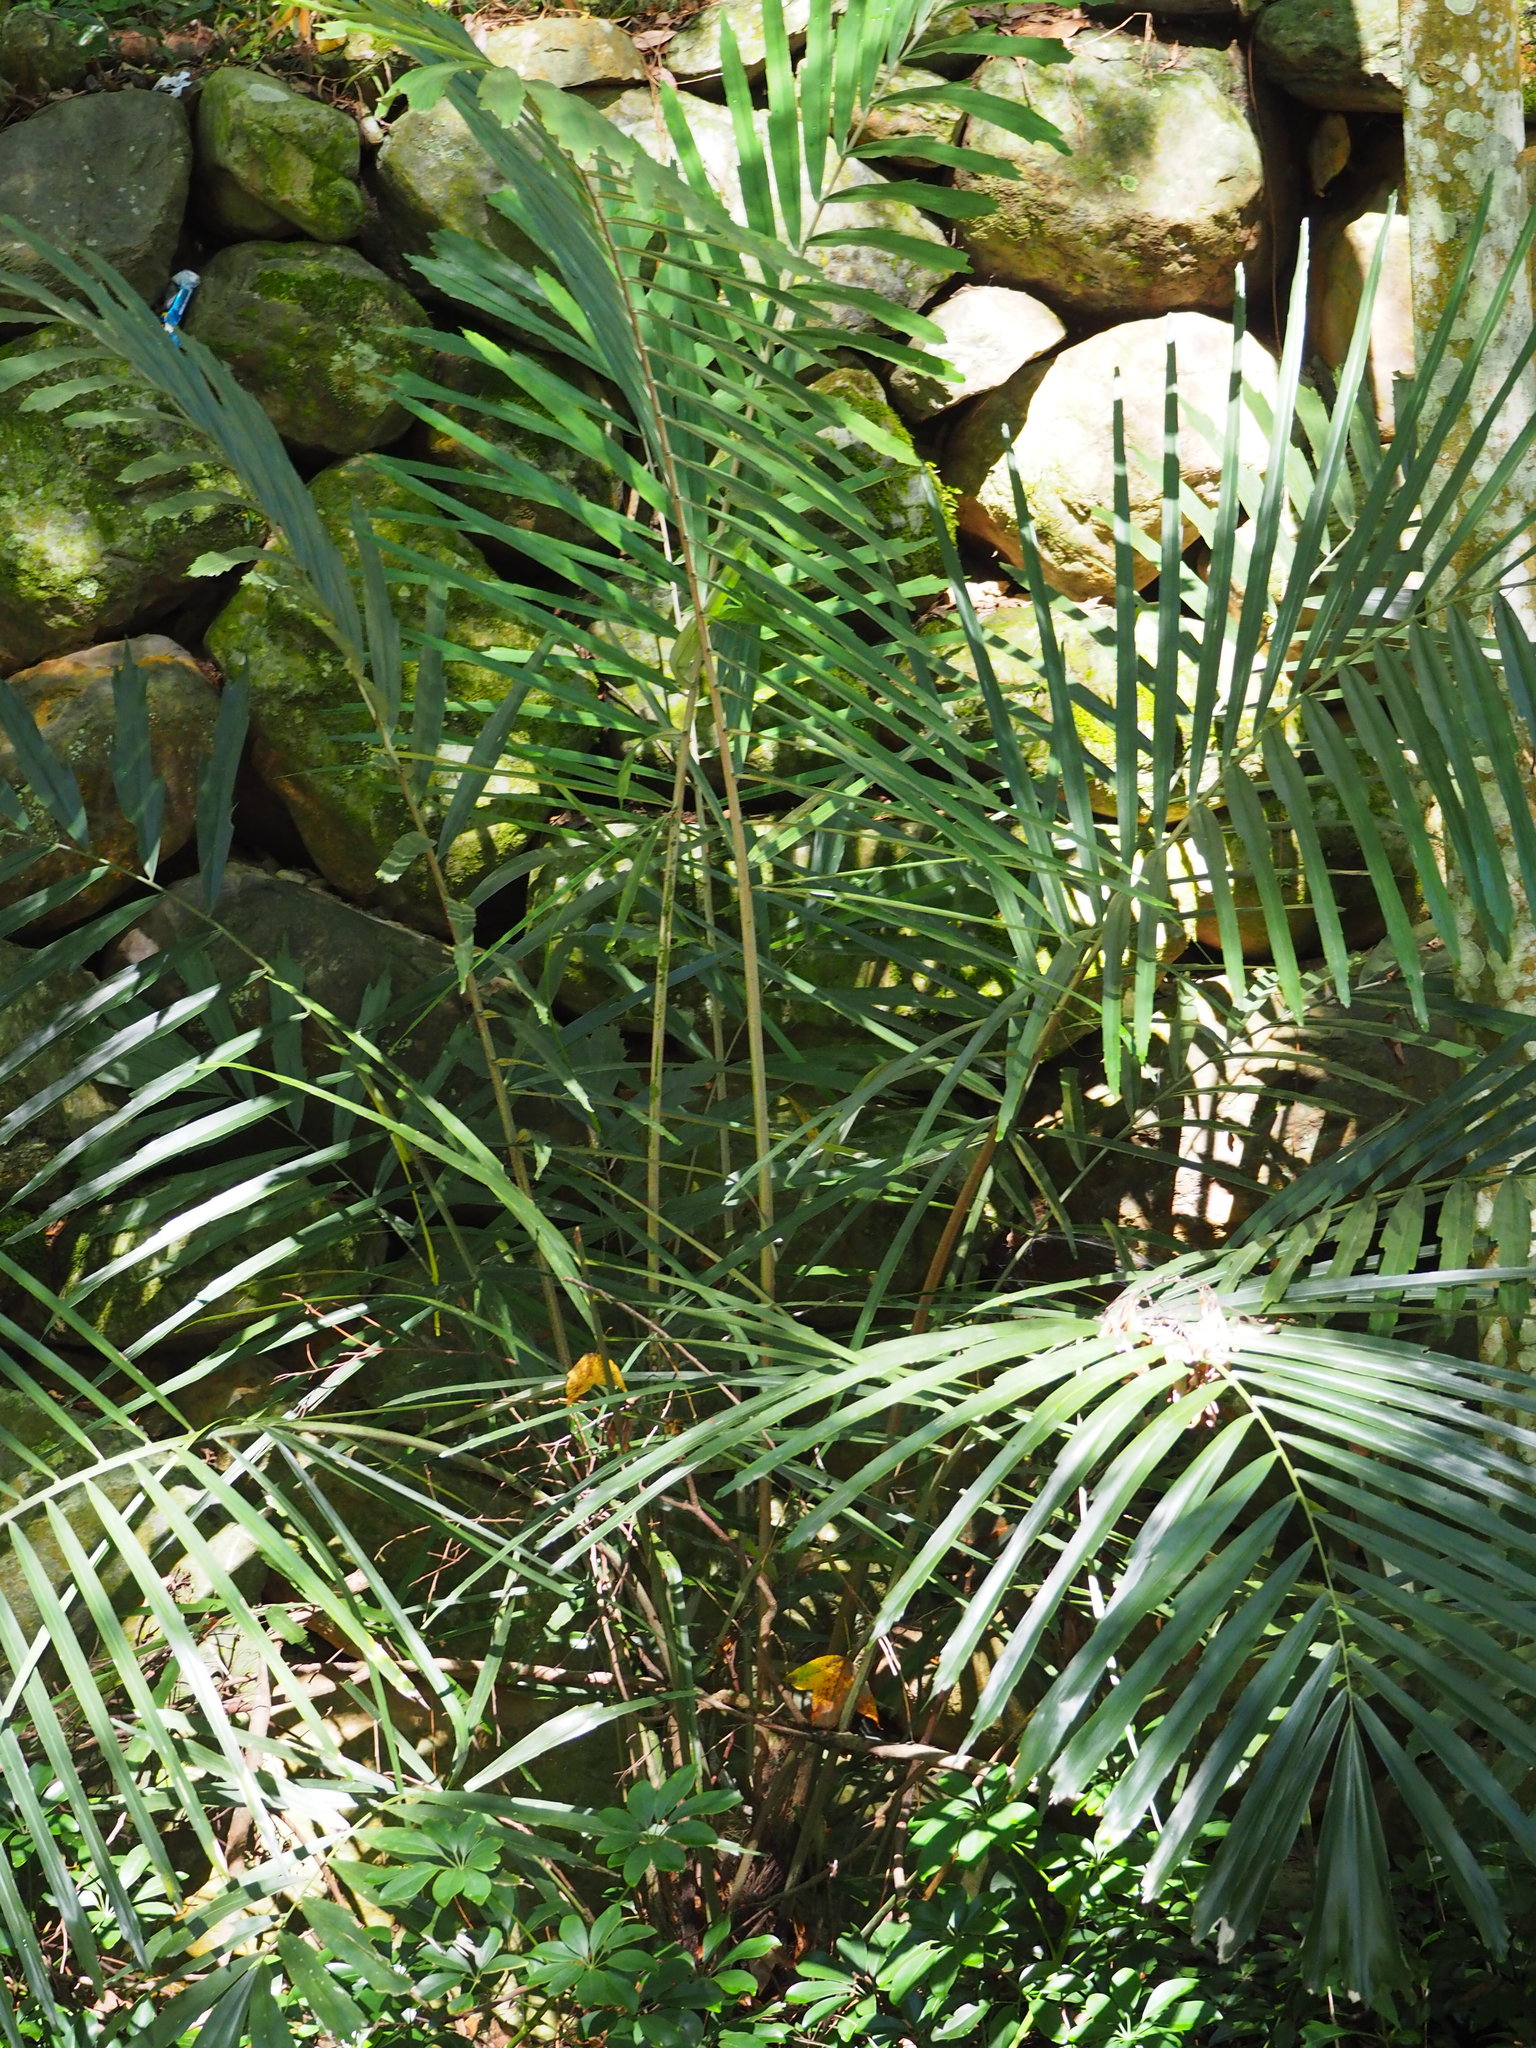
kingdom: Plantae
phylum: Tracheophyta
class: Liliopsida
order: Arecales
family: Arecaceae
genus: Arenga
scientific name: Arenga engleri
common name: Formosan sugar palm
